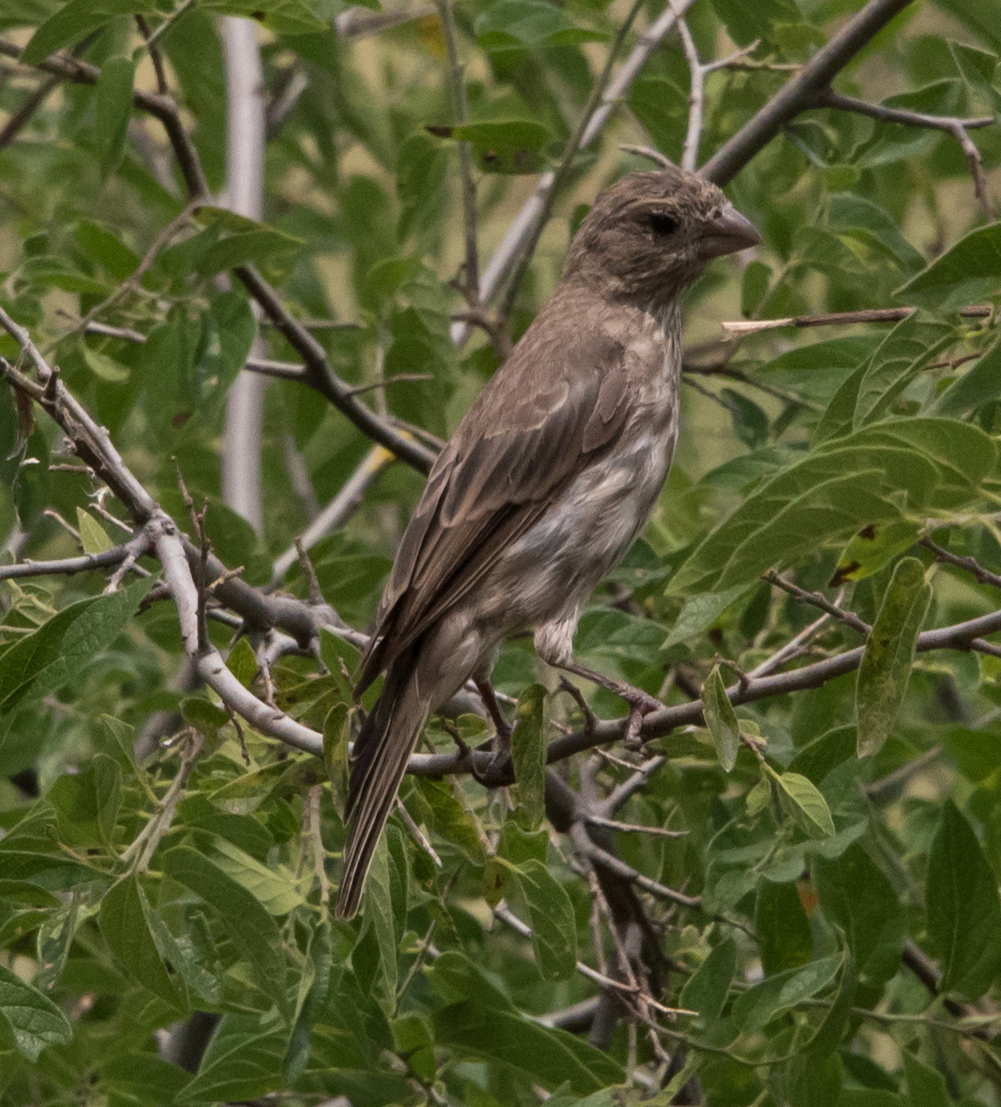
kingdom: Animalia
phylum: Chordata
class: Aves
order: Passeriformes
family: Fringillidae
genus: Haemorhous
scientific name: Haemorhous mexicanus
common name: House finch
